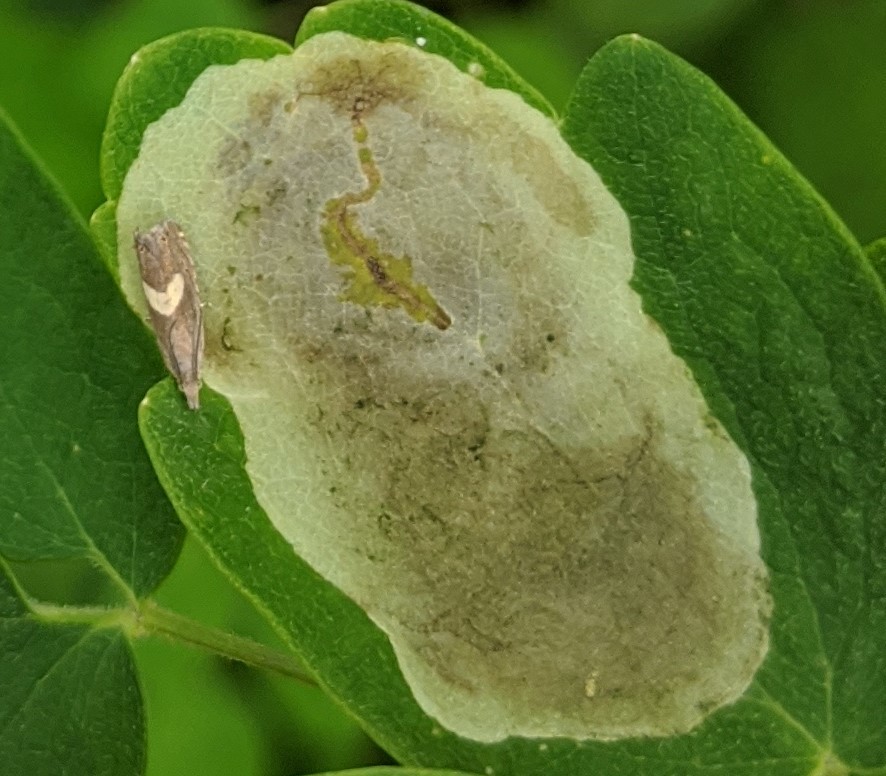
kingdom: Animalia
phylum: Arthropoda
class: Insecta
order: Diptera
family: Agromyzidae
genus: Phytomyza
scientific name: Phytomyza plumiseta
